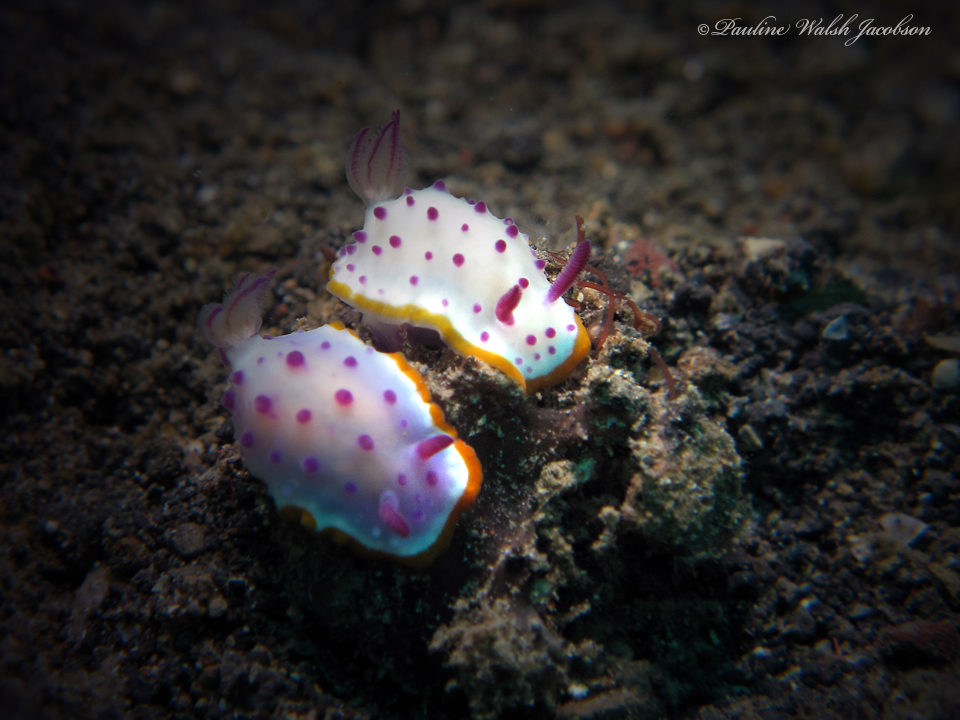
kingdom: Animalia
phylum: Mollusca
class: Gastropoda
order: Nudibranchia
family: Chromodorididae
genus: Mexichromis
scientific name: Mexichromis mariei
